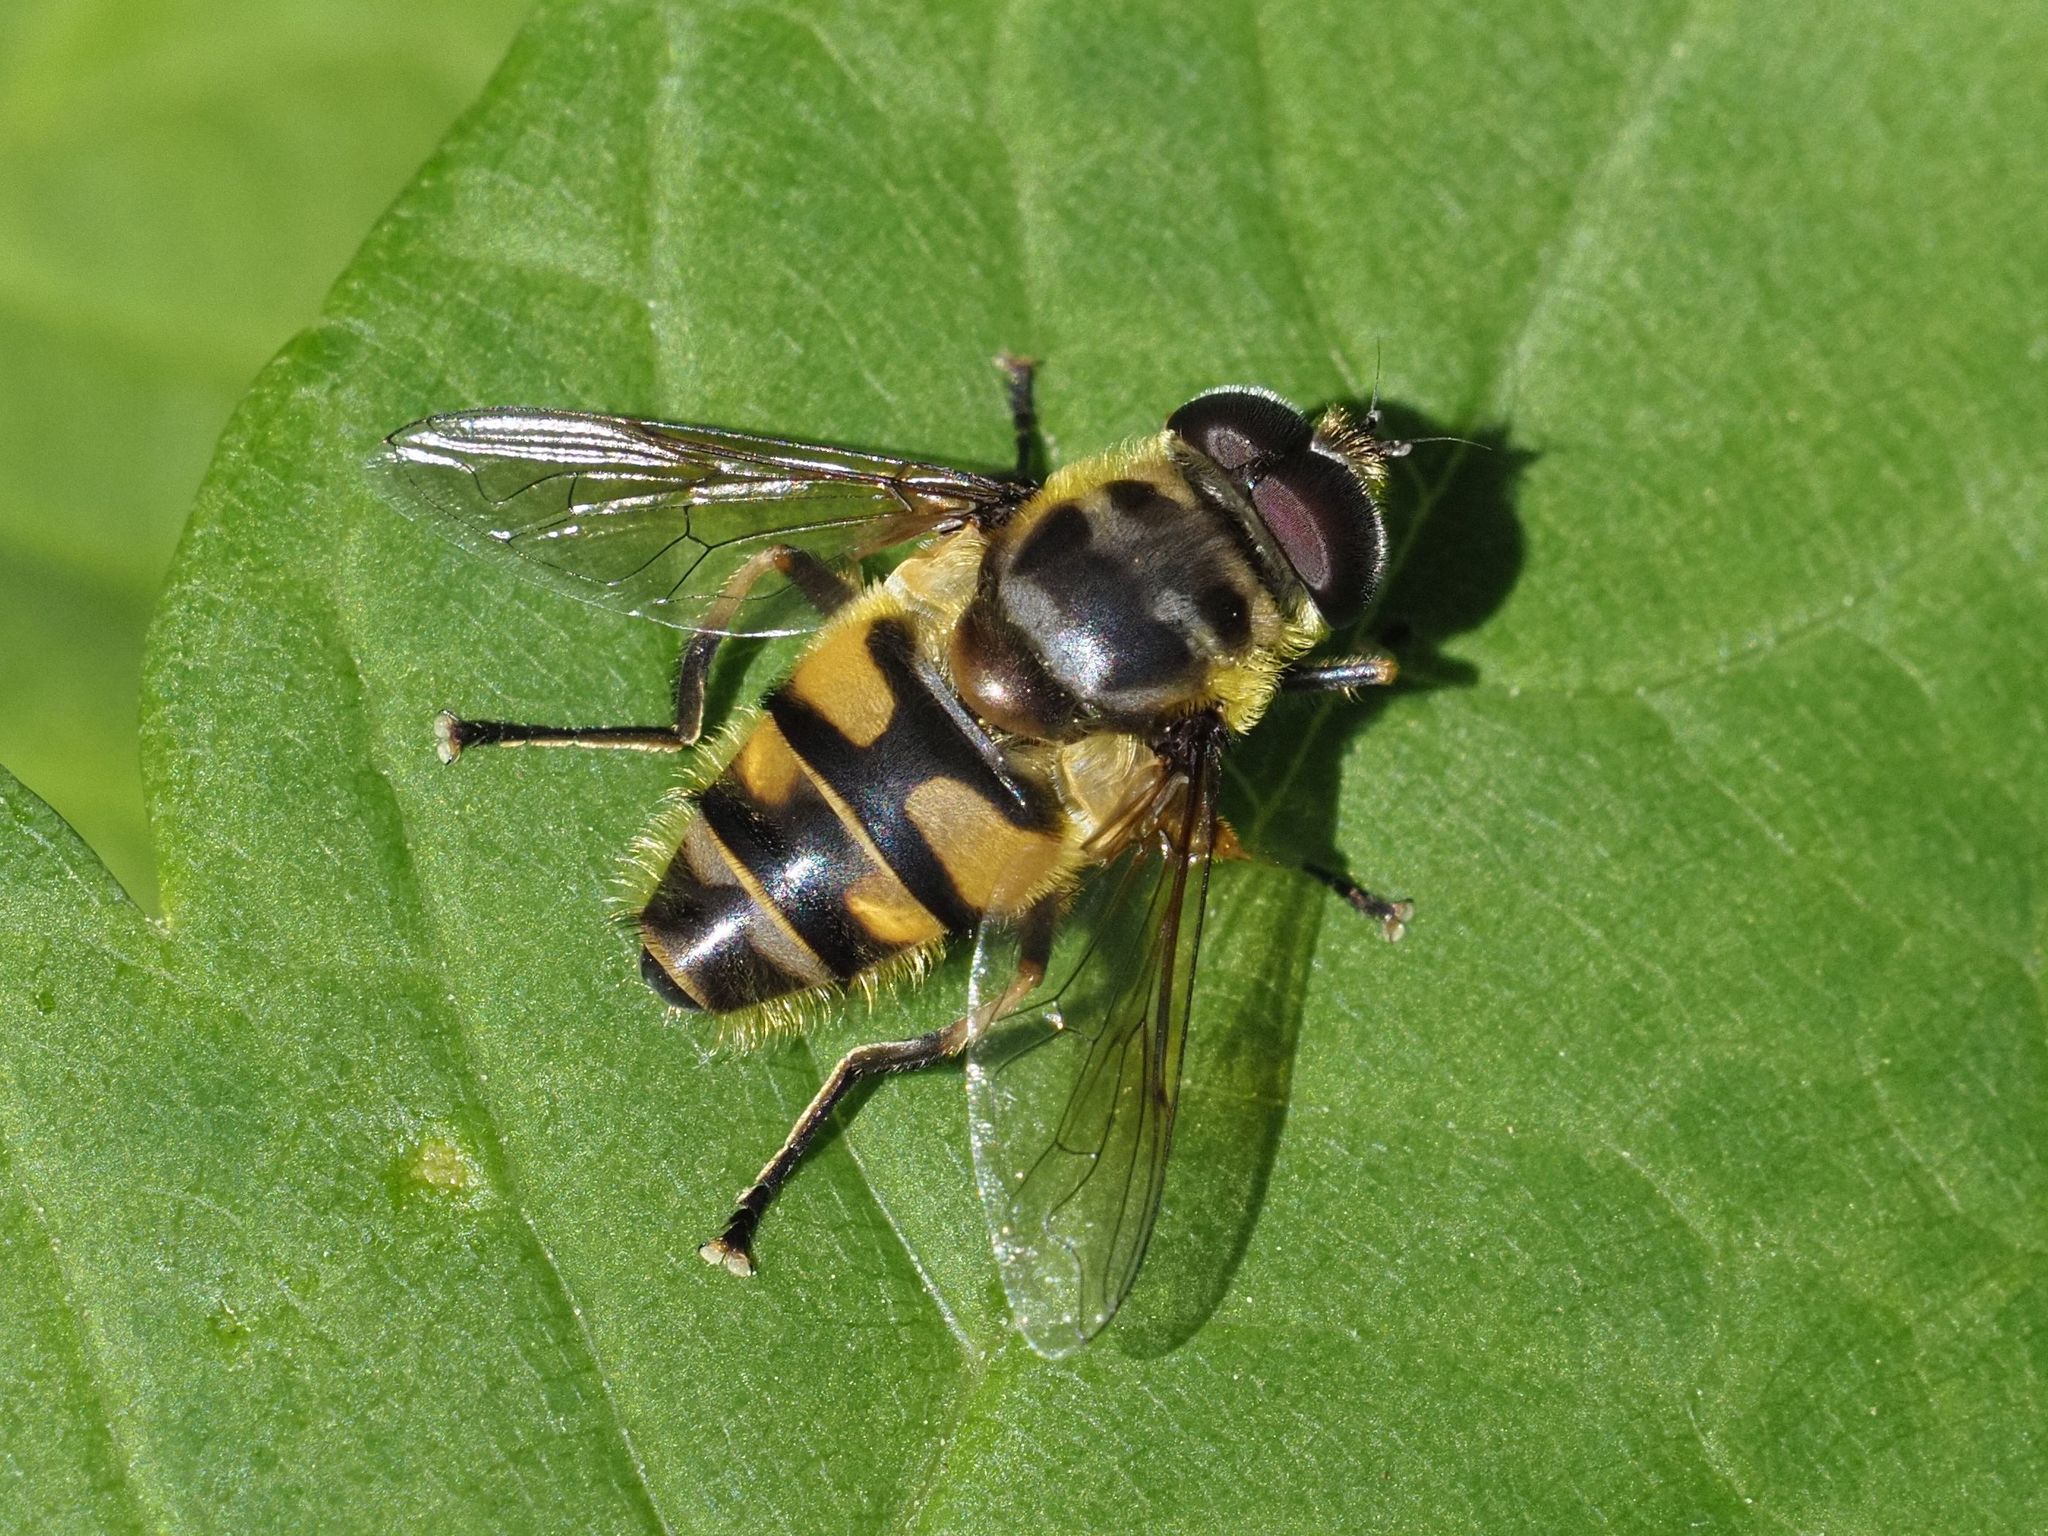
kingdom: Animalia
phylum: Arthropoda
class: Insecta
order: Diptera
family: Syrphidae
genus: Myathropa
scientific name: Myathropa florea
